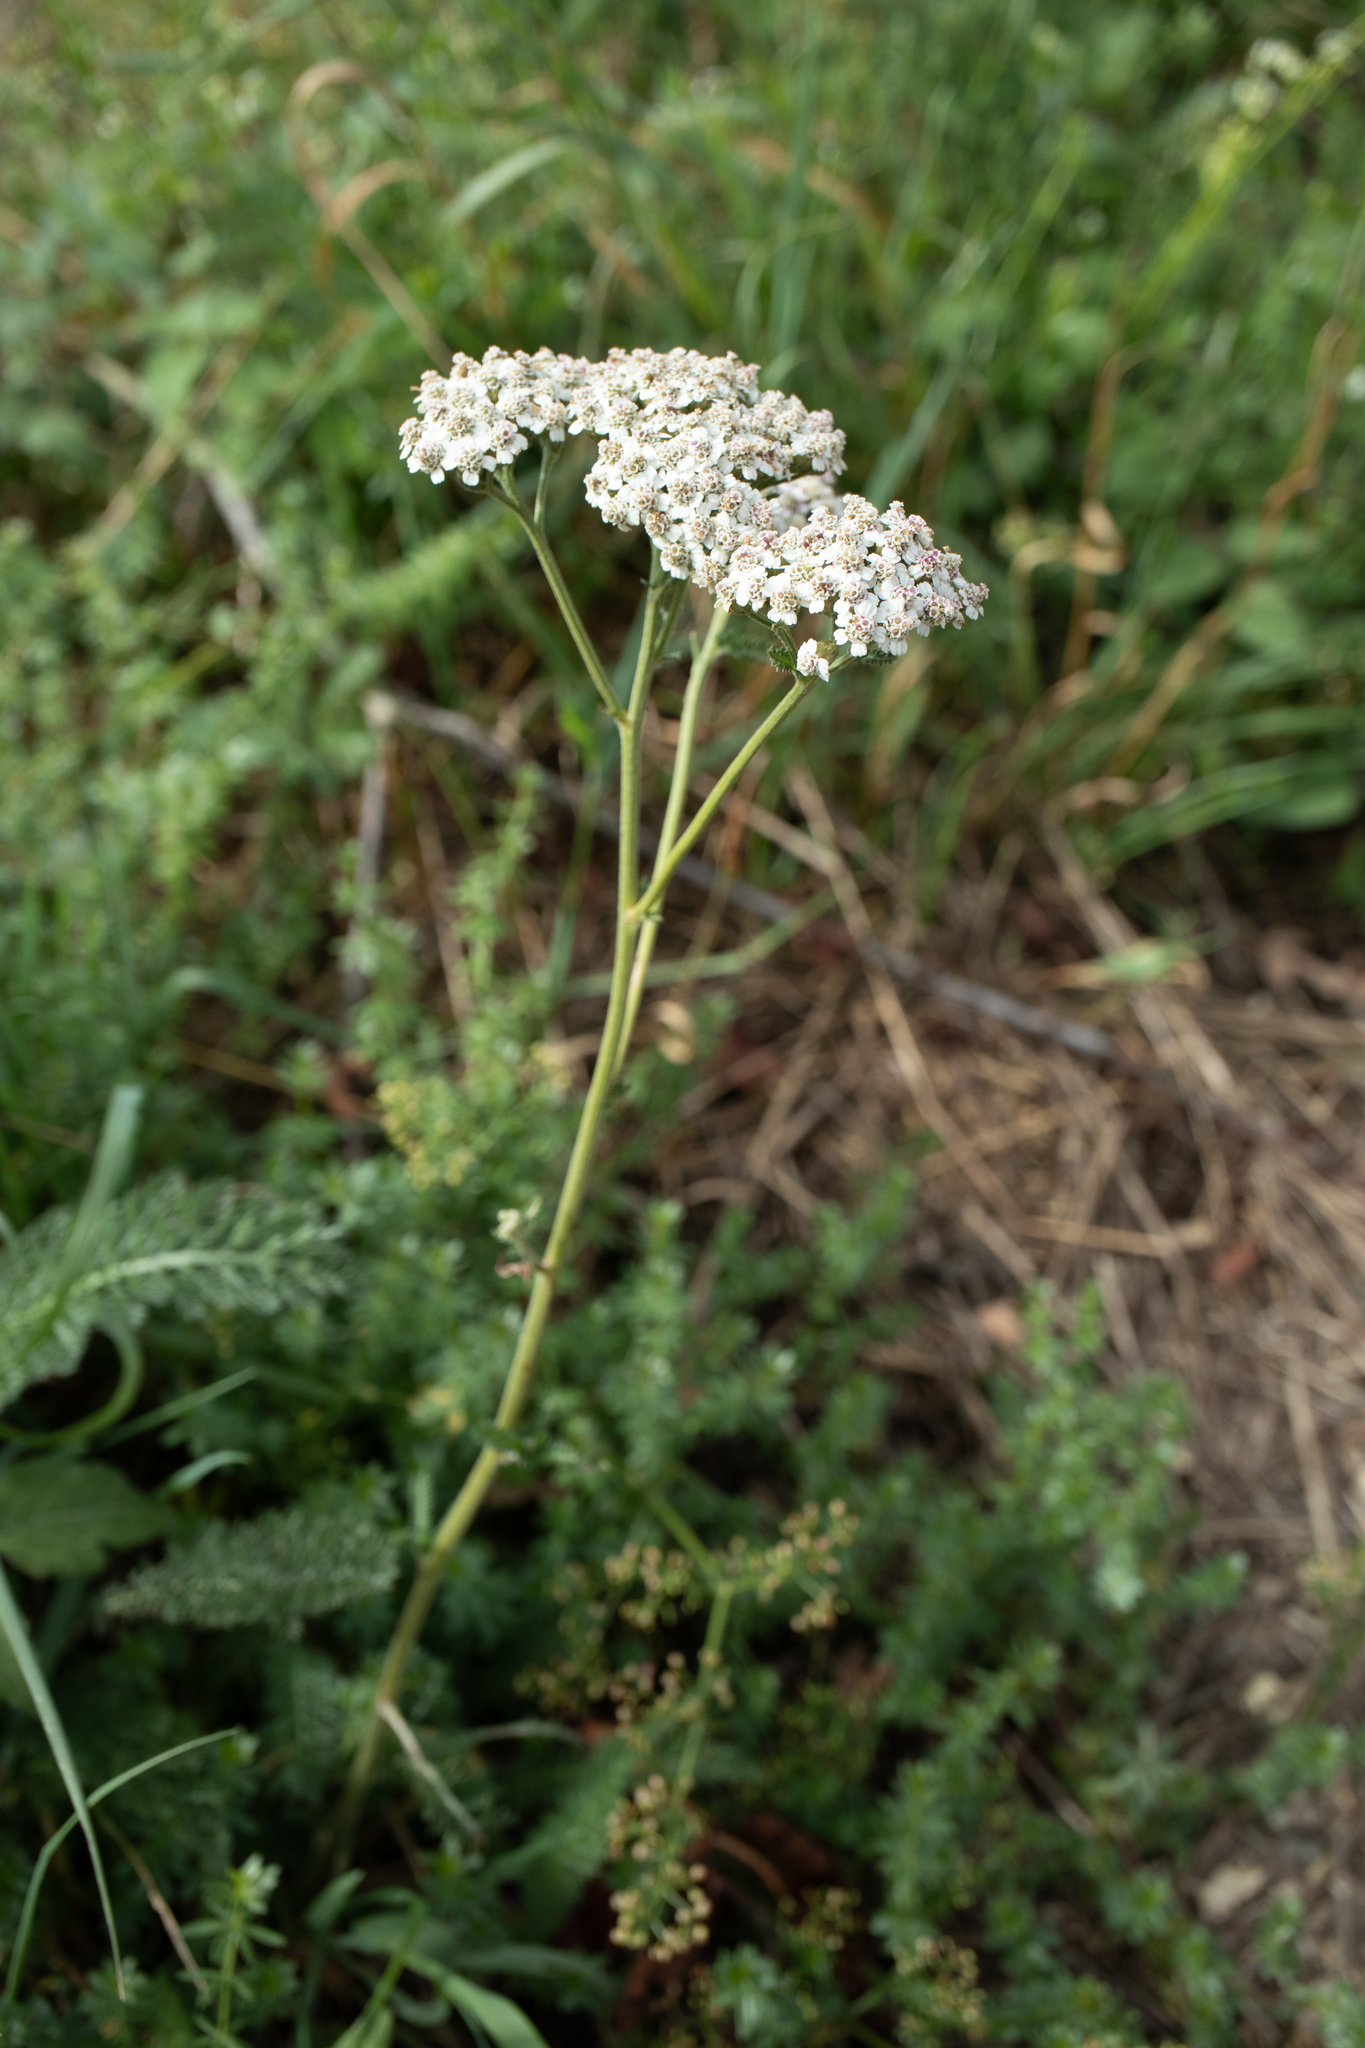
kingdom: Plantae
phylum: Tracheophyta
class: Magnoliopsida
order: Asterales
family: Asteraceae
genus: Achillea
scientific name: Achillea millefolium
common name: Yarrow
